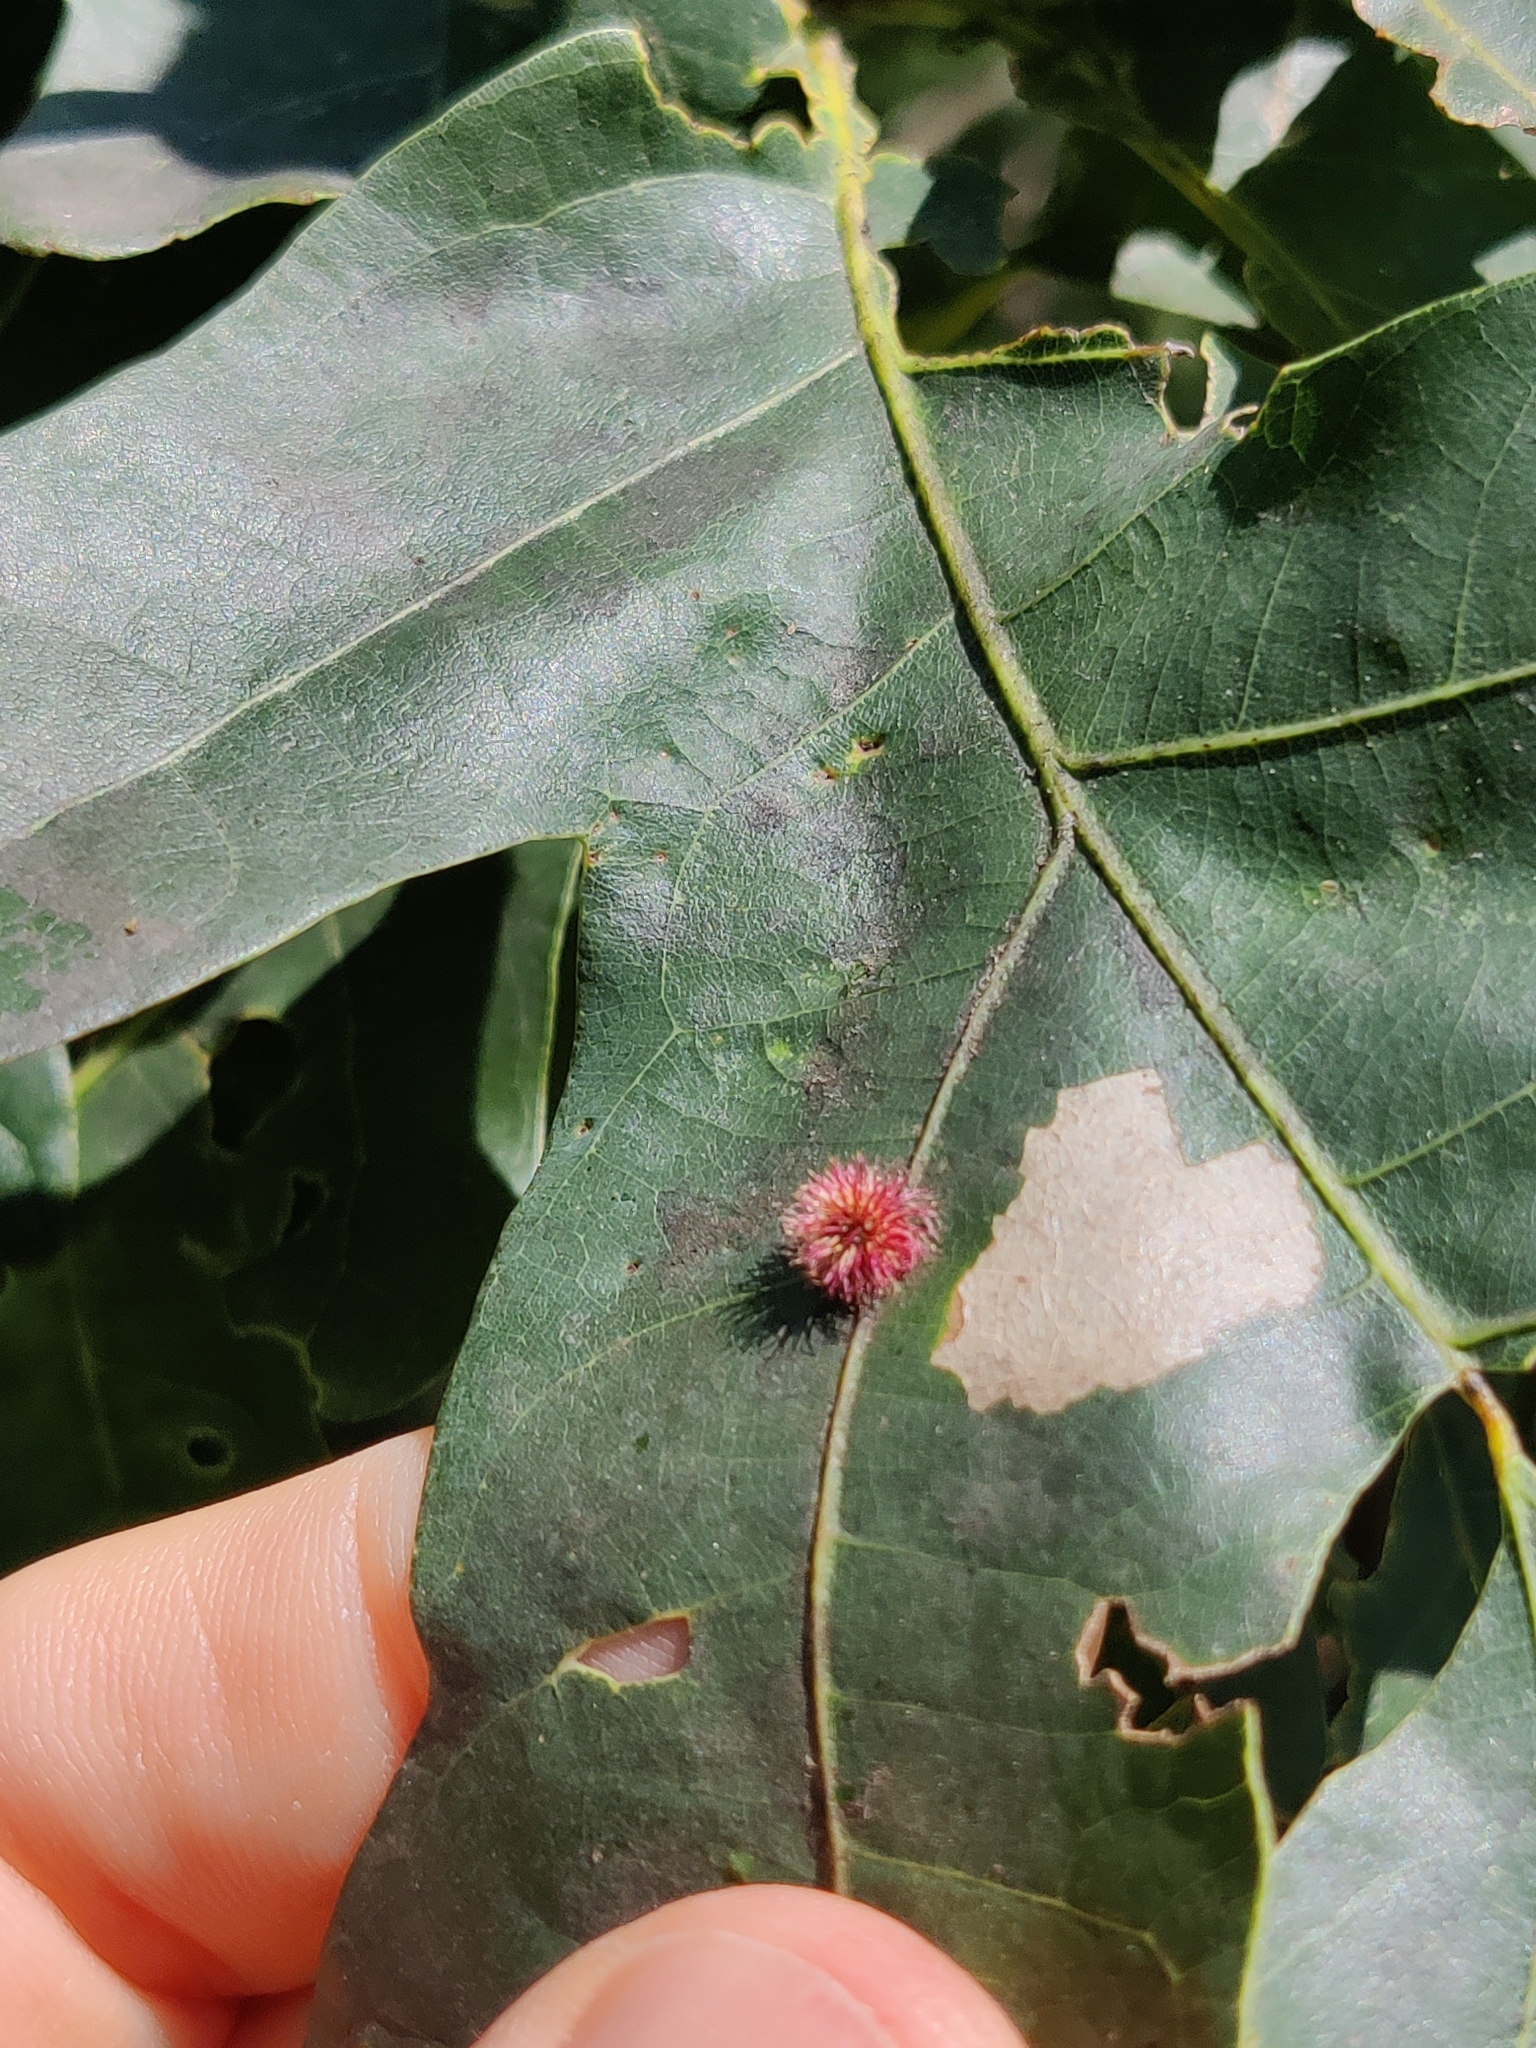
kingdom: Animalia
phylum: Arthropoda
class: Insecta
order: Hymenoptera
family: Cynipidae
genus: Callirhytis
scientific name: Callirhytis
